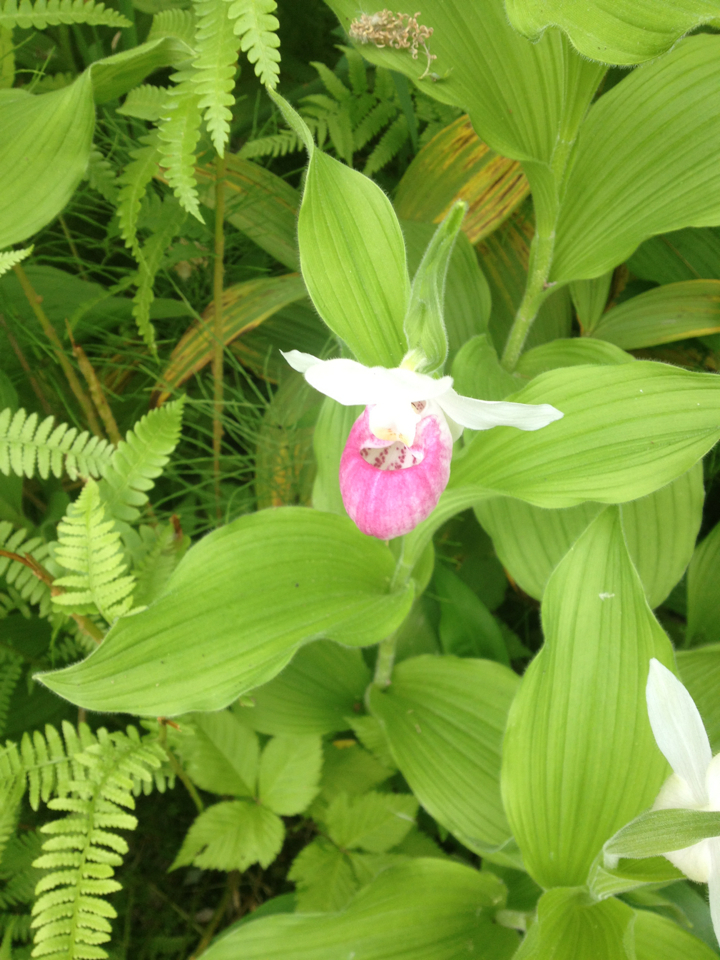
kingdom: Plantae
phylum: Tracheophyta
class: Liliopsida
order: Asparagales
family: Orchidaceae
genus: Cypripedium
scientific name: Cypripedium reginae
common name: Queen lady's-slipper
